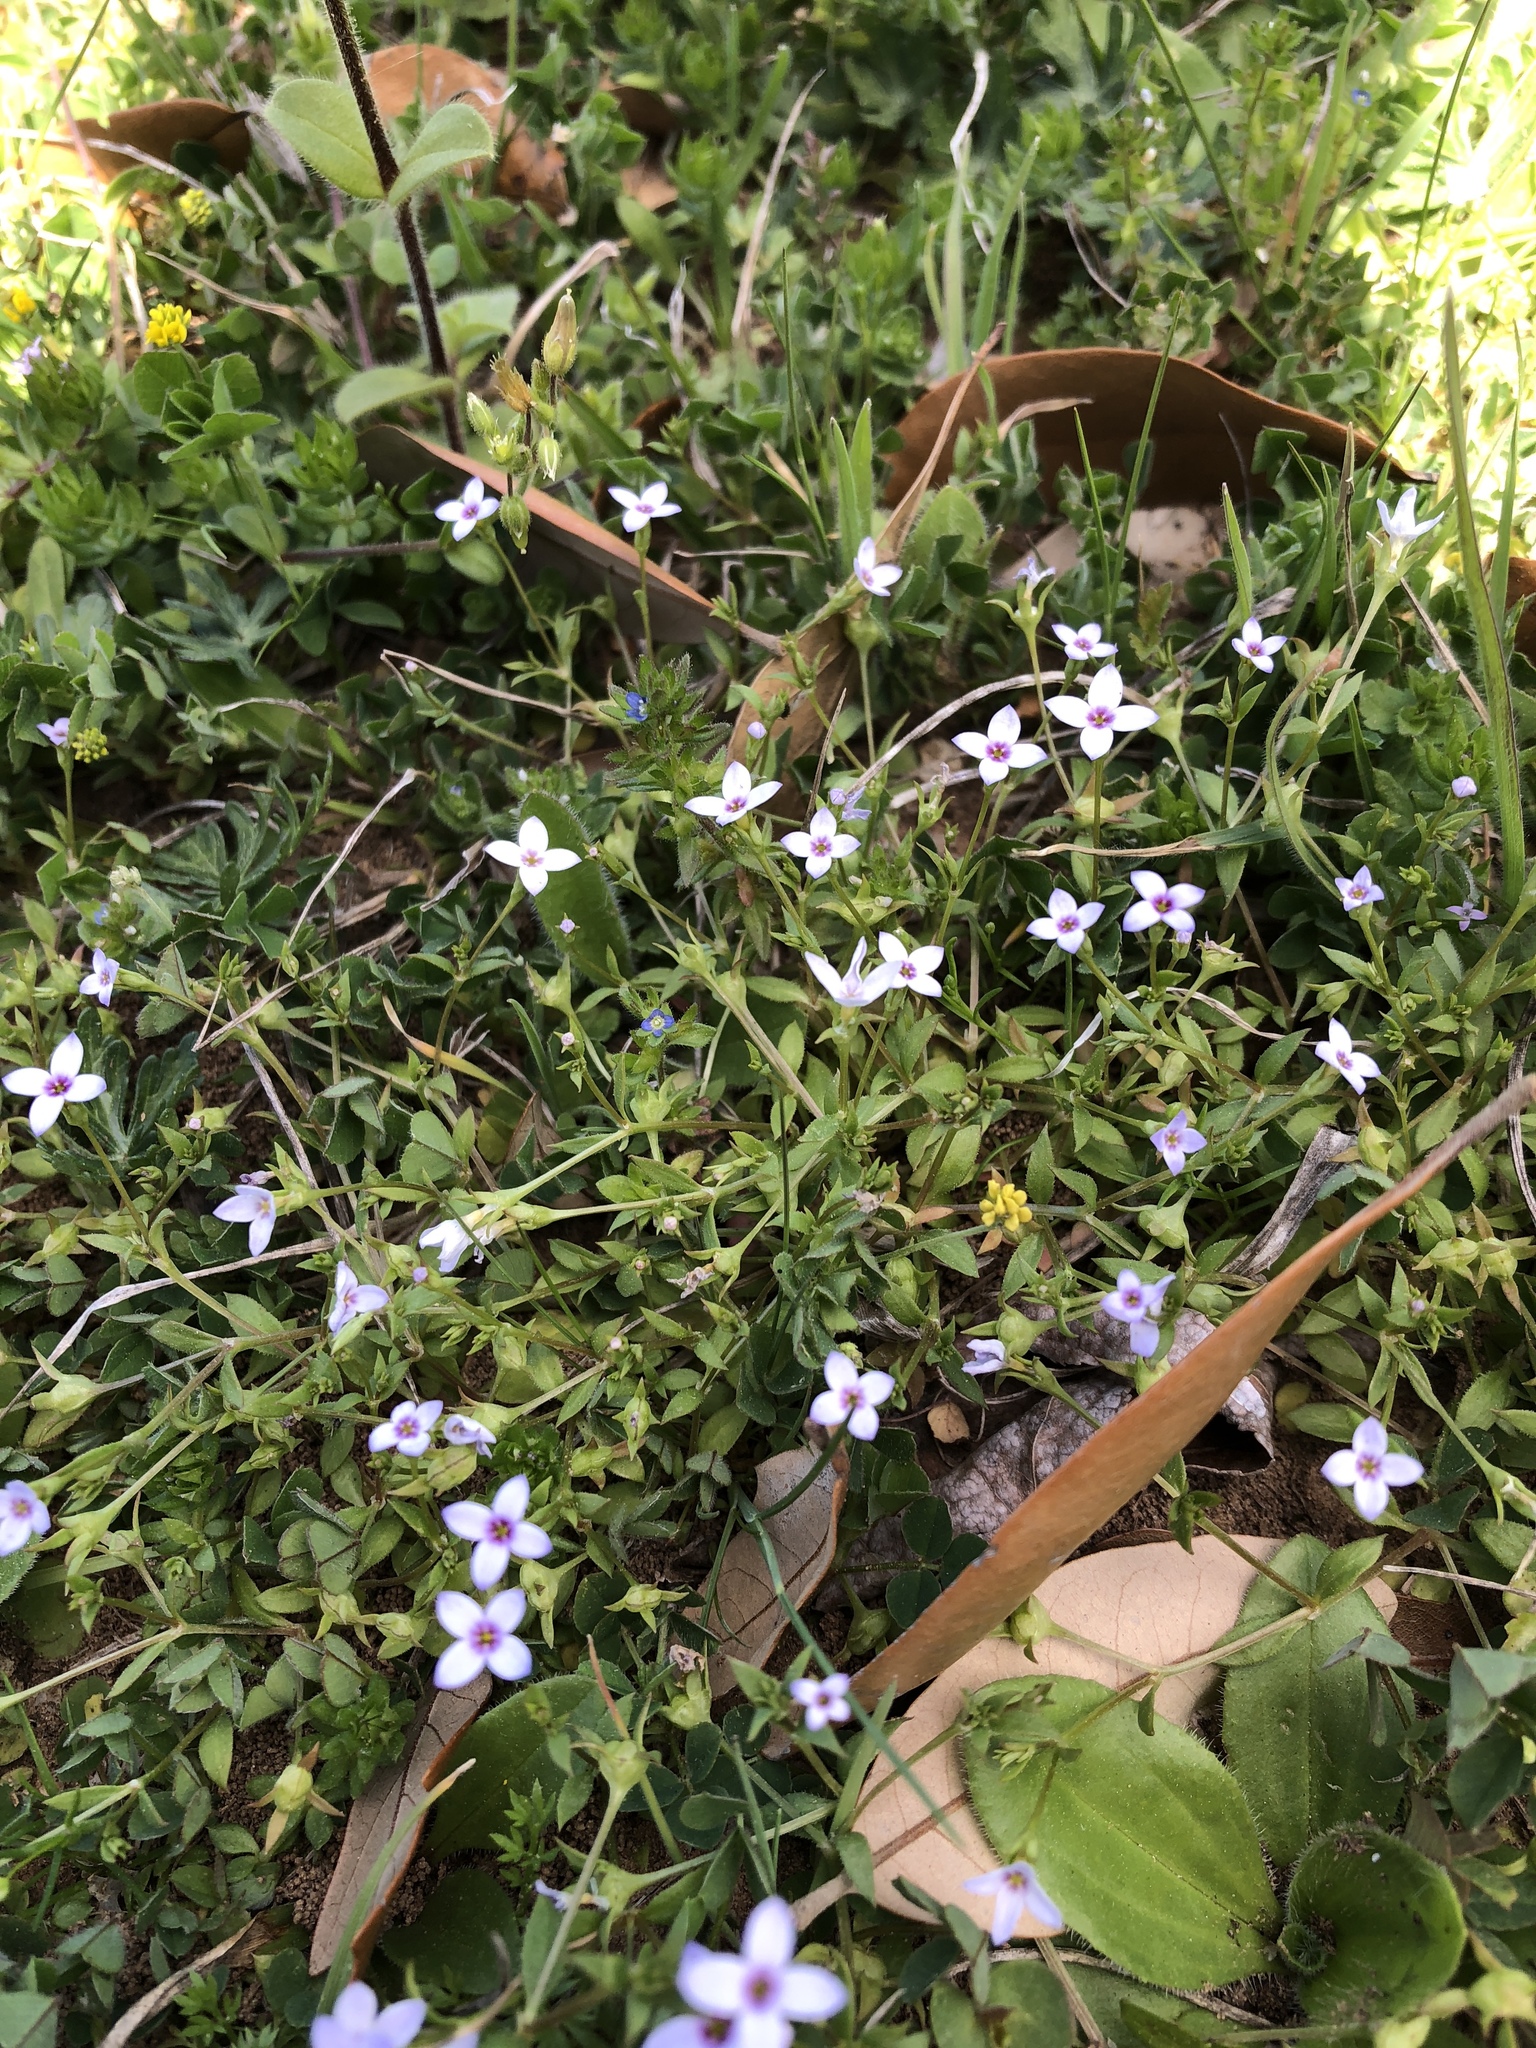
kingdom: Plantae
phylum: Tracheophyta
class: Magnoliopsida
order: Gentianales
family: Rubiaceae
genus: Houstonia
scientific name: Houstonia pusilla
